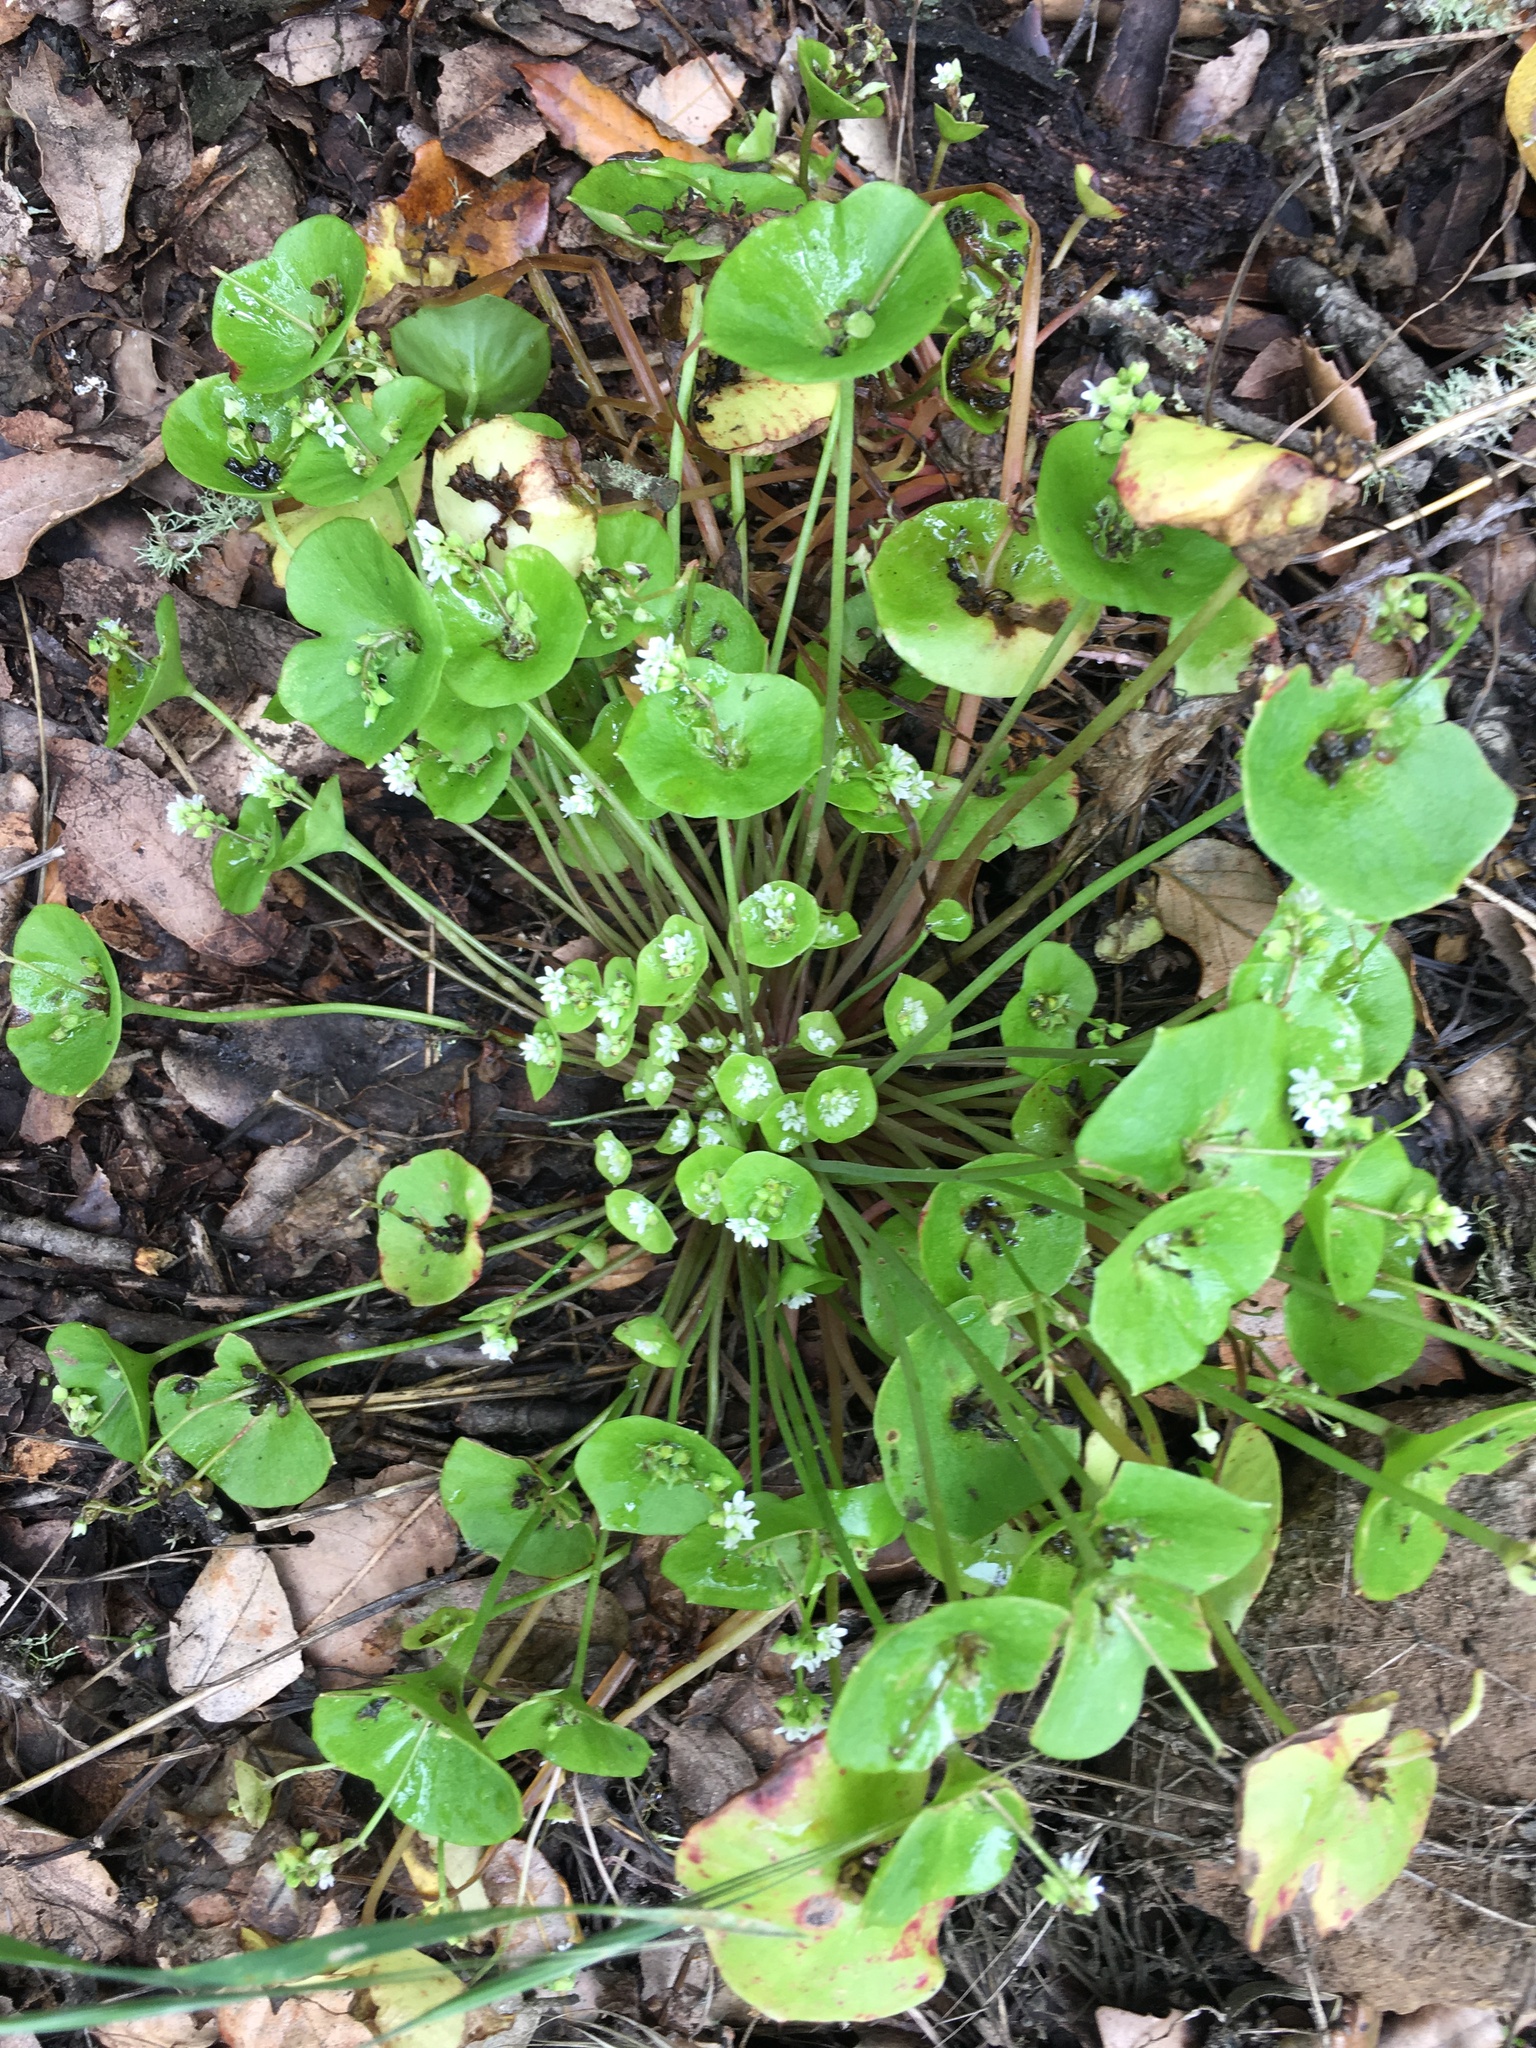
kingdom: Plantae
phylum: Tracheophyta
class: Magnoliopsida
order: Caryophyllales
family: Montiaceae
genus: Claytonia
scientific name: Claytonia perfoliata
